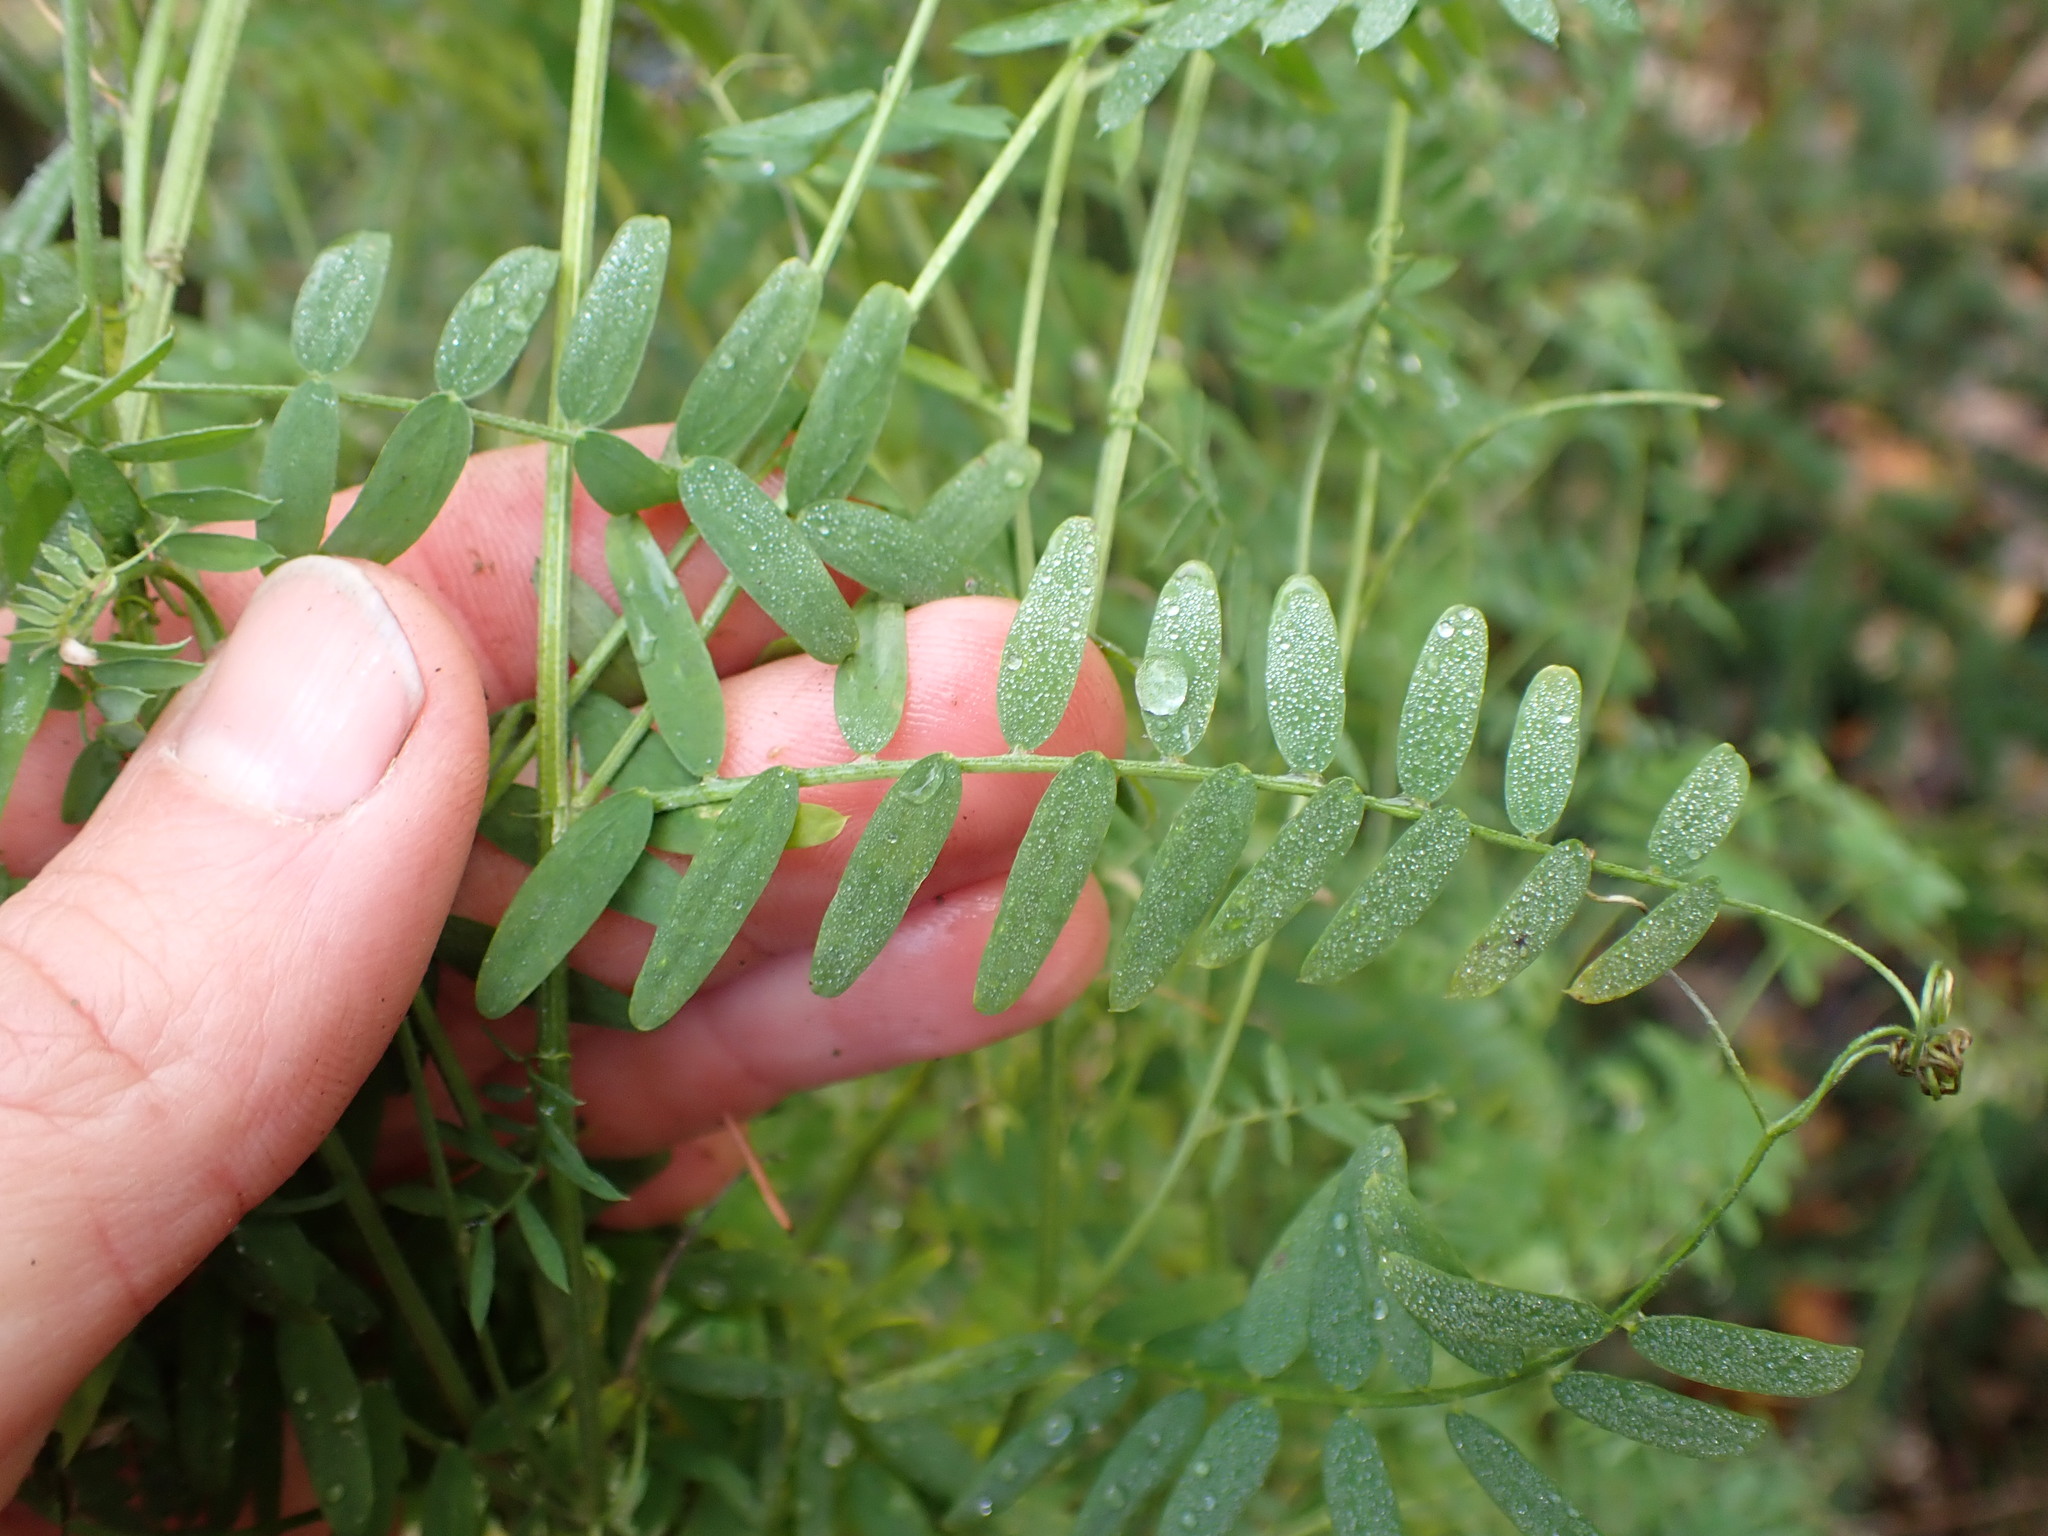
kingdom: Plantae
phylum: Tracheophyta
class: Magnoliopsida
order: Fabales
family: Fabaceae
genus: Vicia
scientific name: Vicia cracca
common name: Bird vetch
